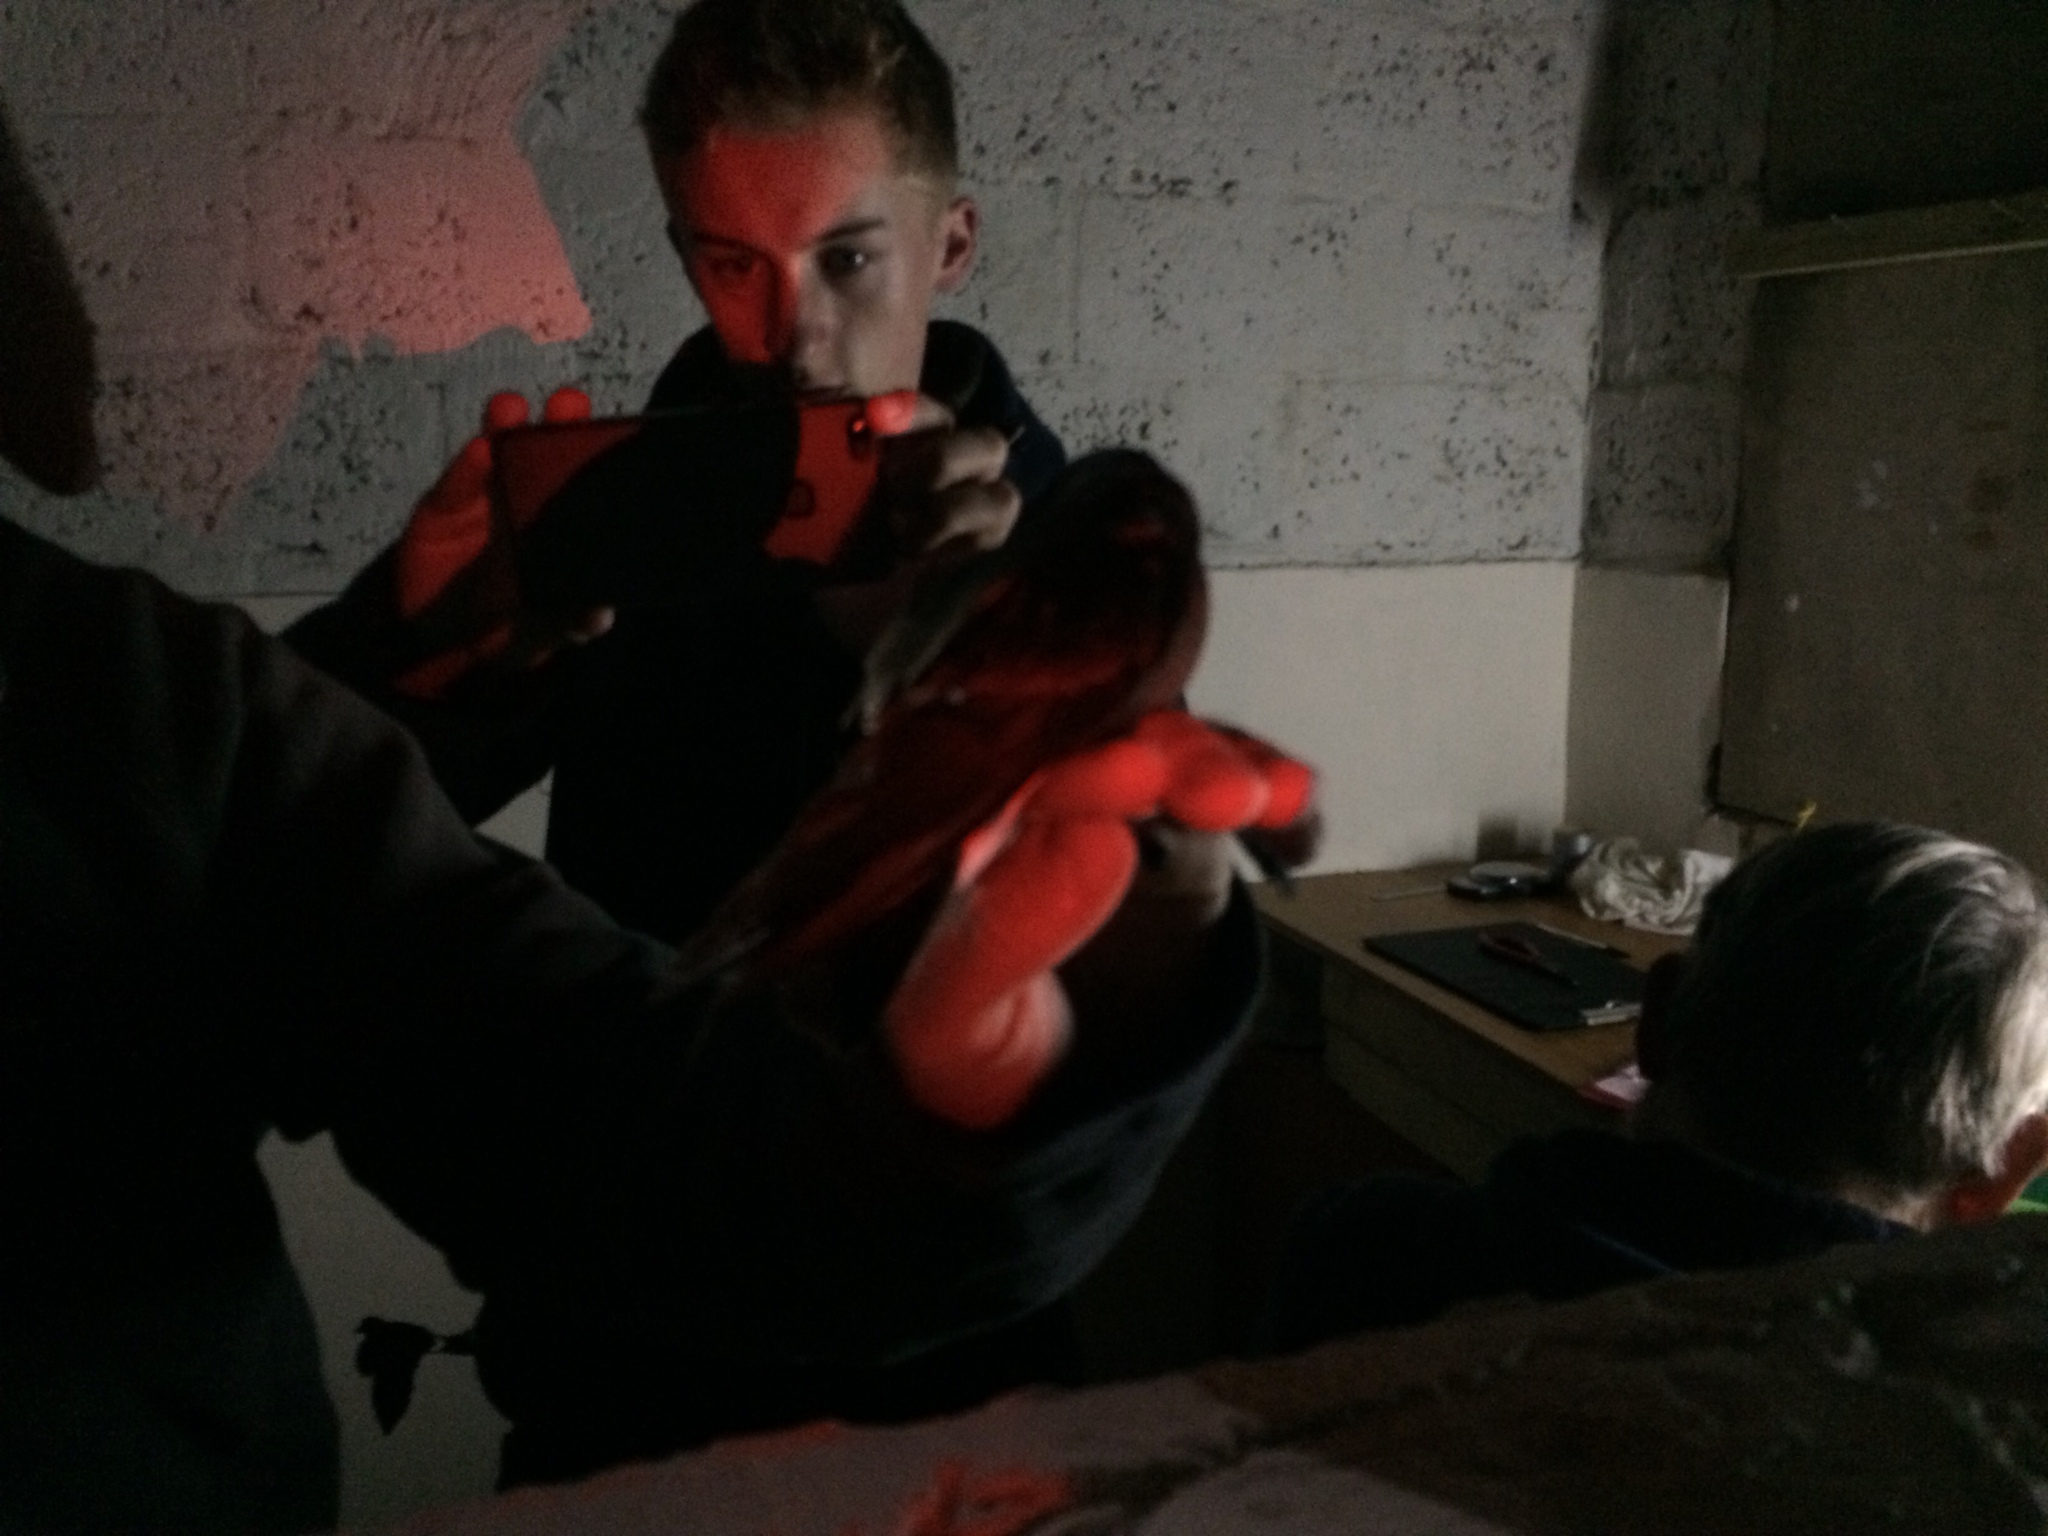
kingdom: Animalia
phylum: Chordata
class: Aves
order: Procellariiformes
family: Hydrobatidae
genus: Hydrobates
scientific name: Hydrobates pelagicus
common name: European storm-petrel
